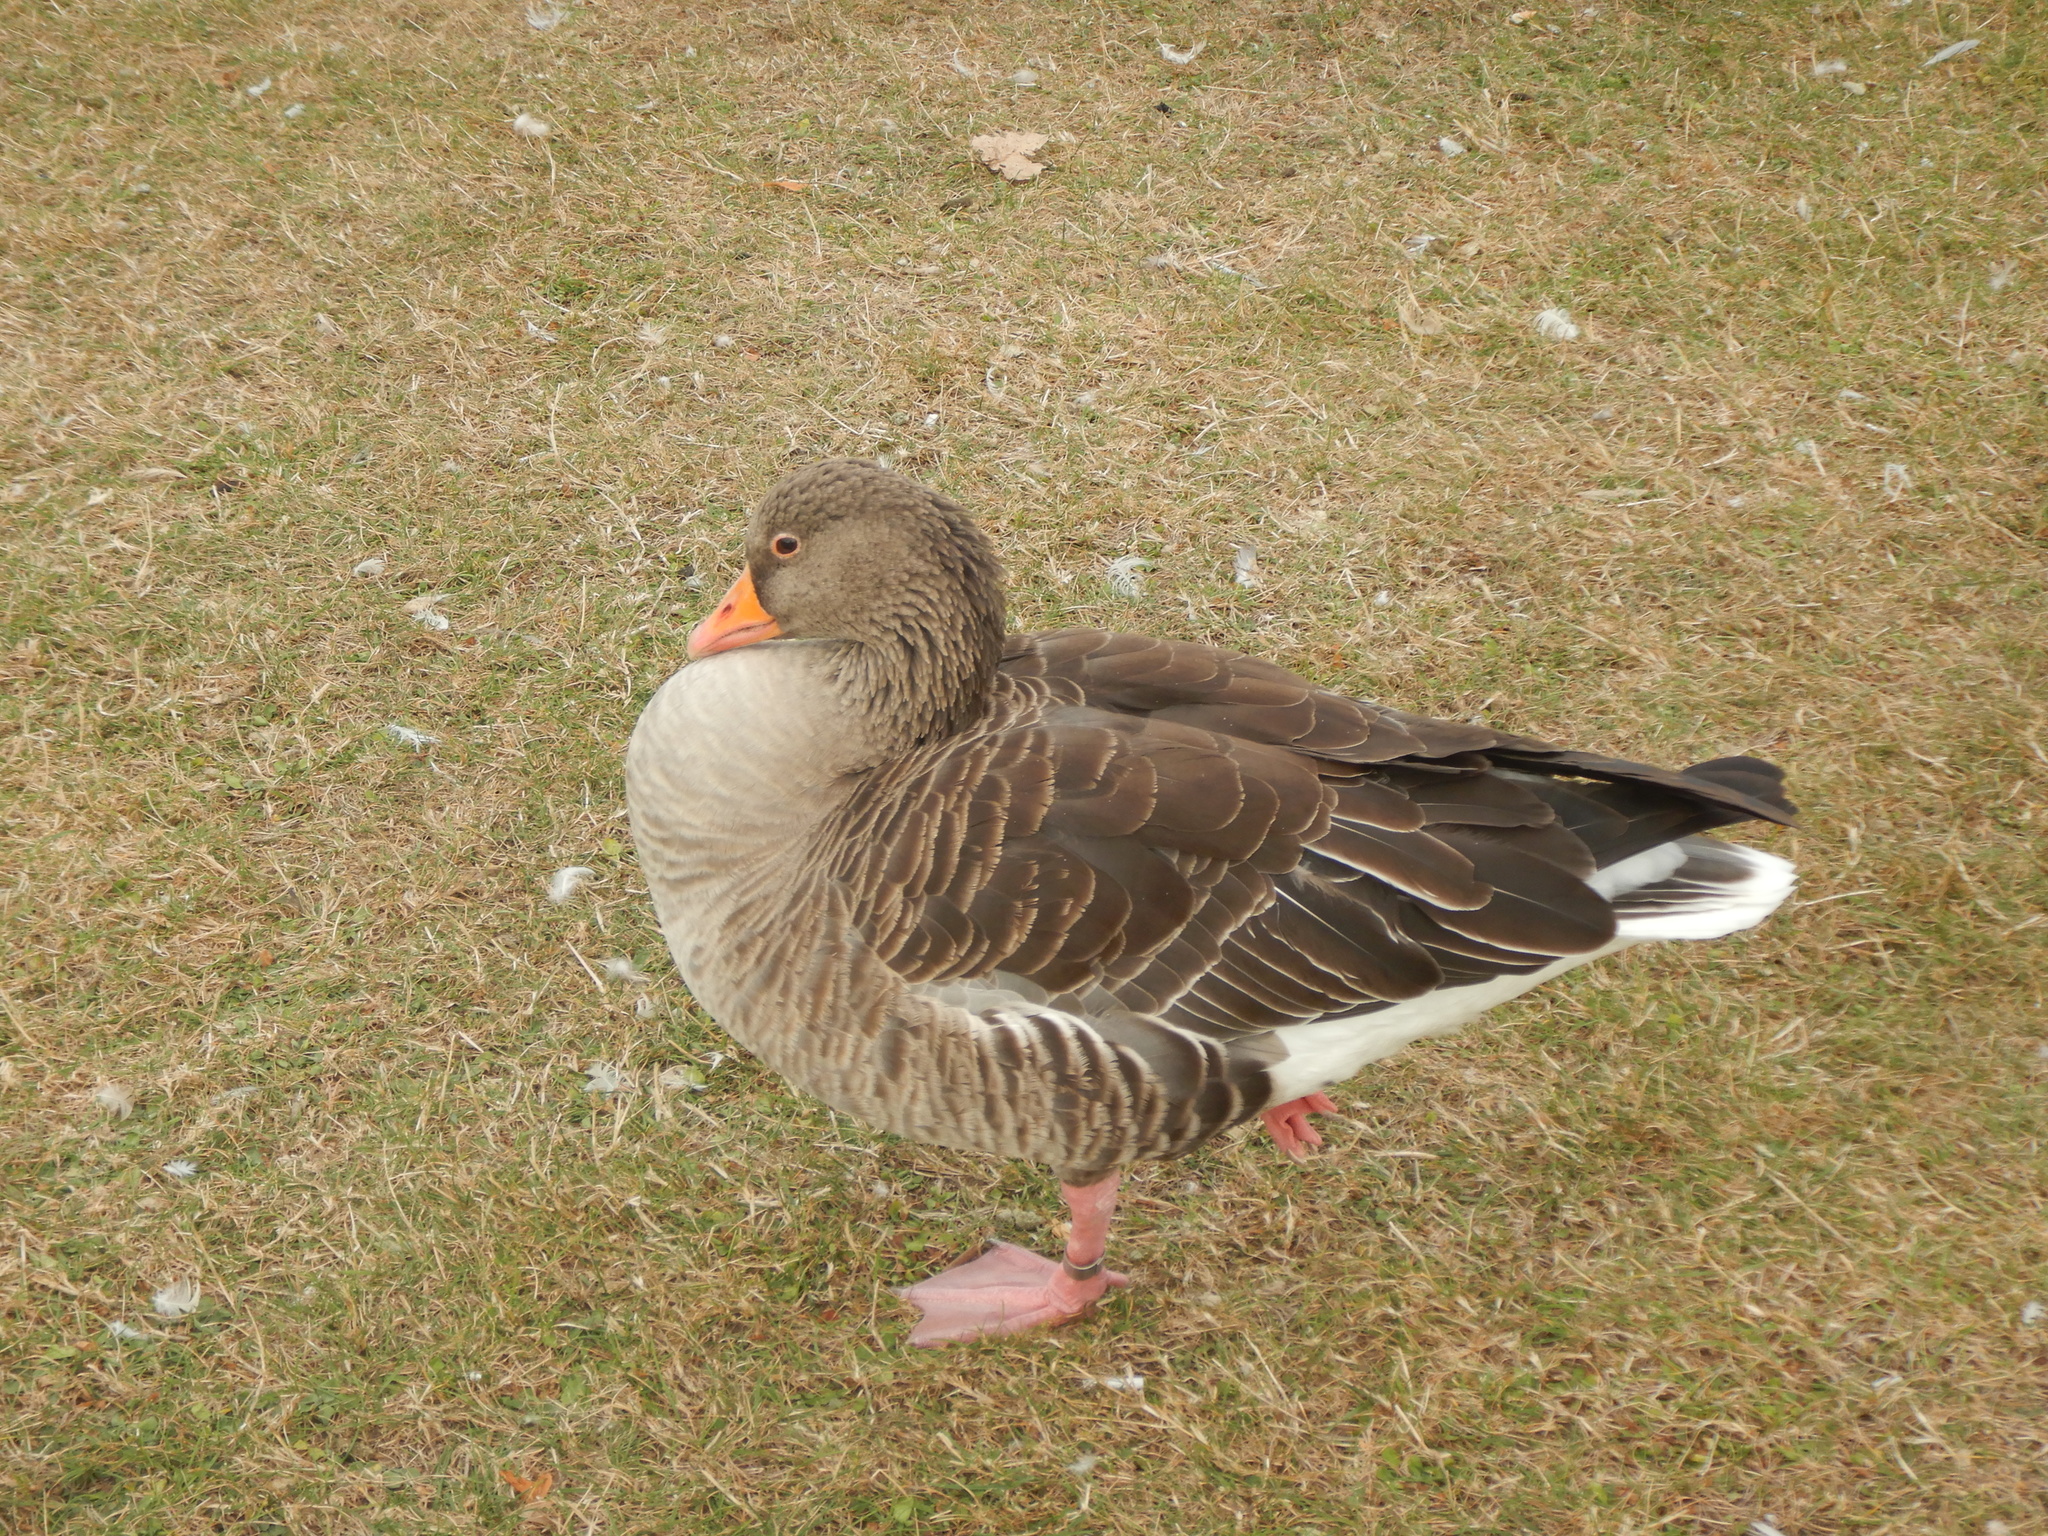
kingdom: Animalia
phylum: Chordata
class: Aves
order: Anseriformes
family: Anatidae
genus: Anser
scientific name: Anser anser
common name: Greylag goose
